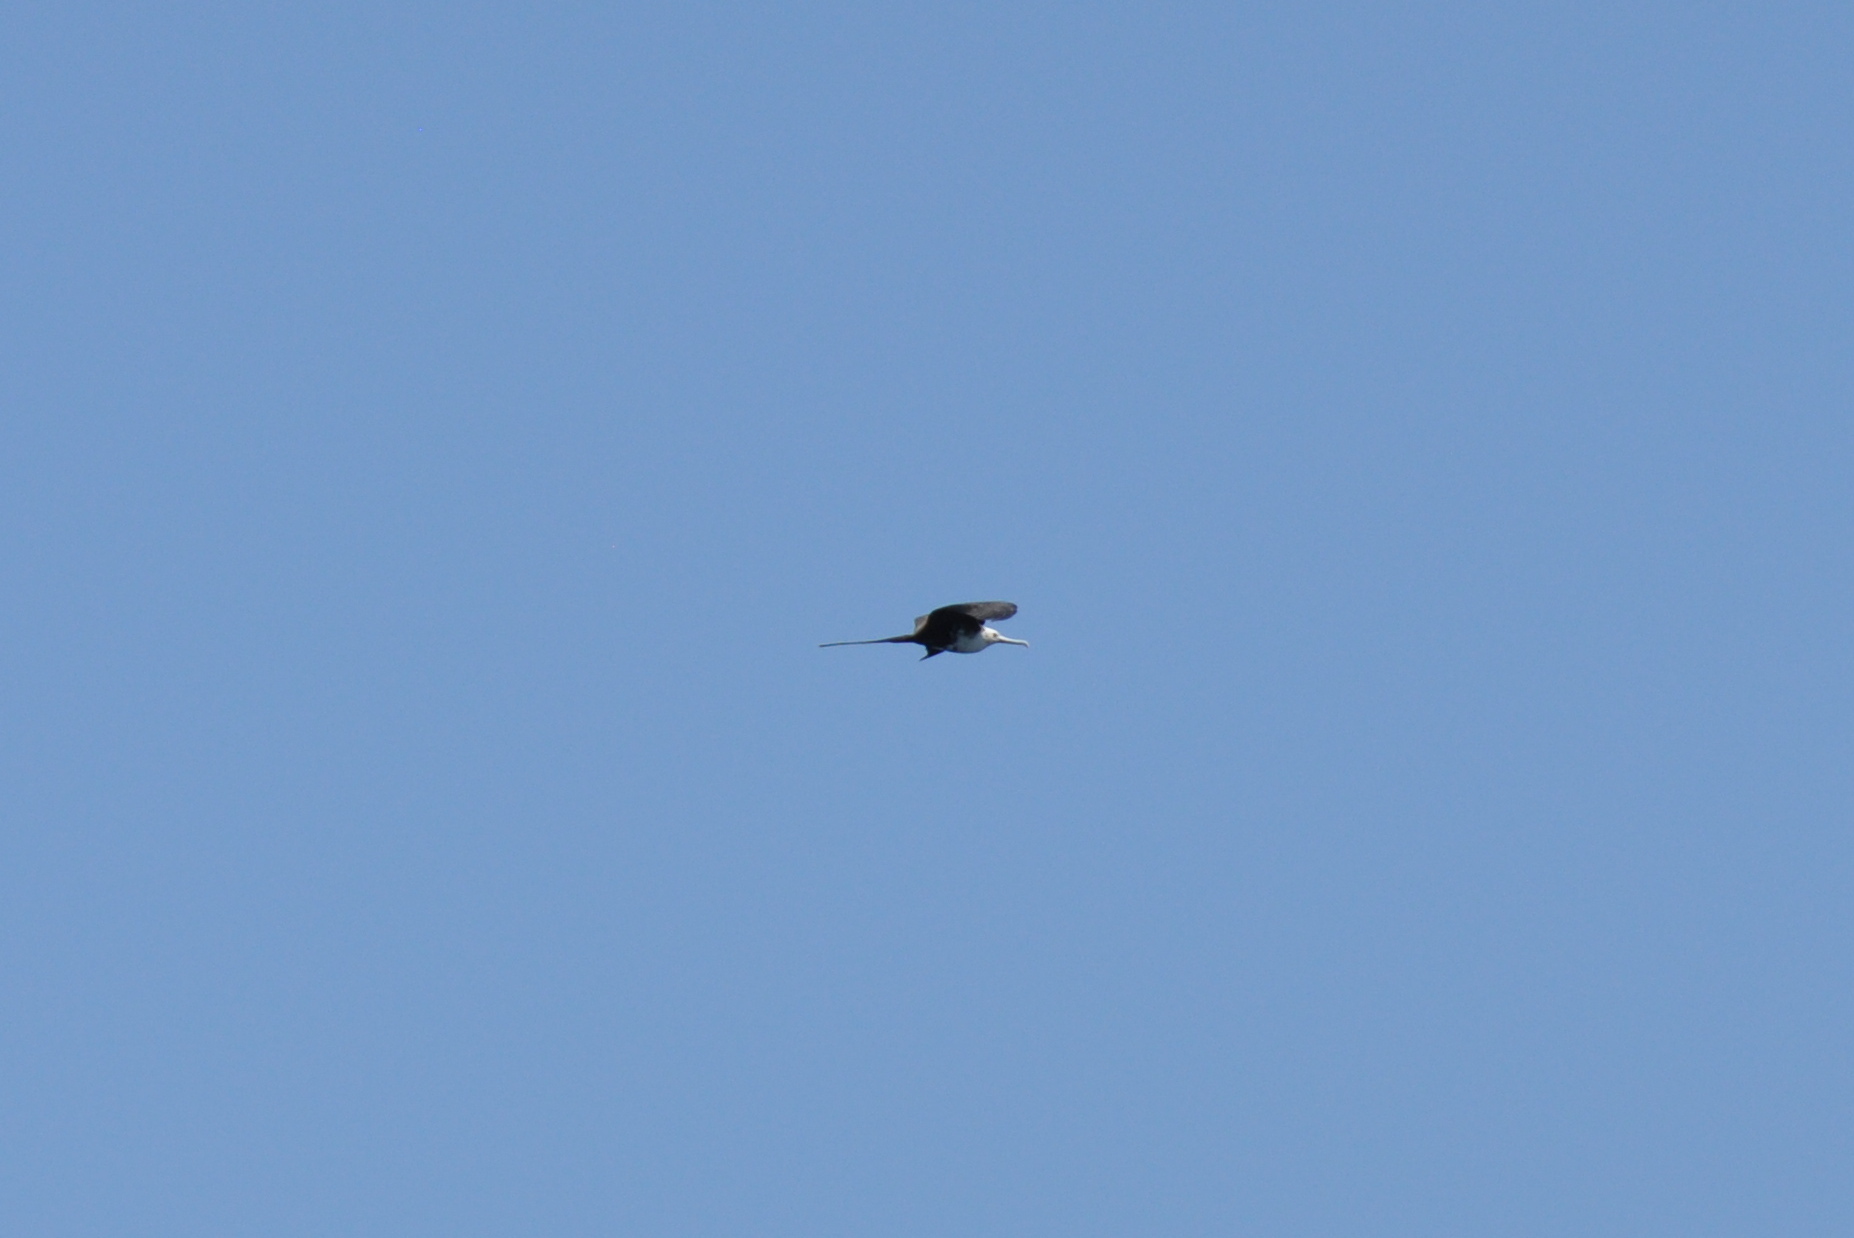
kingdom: Animalia
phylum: Chordata
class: Aves
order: Suliformes
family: Fregatidae
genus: Fregata
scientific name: Fregata magnificens
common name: Magnificent frigatebird
